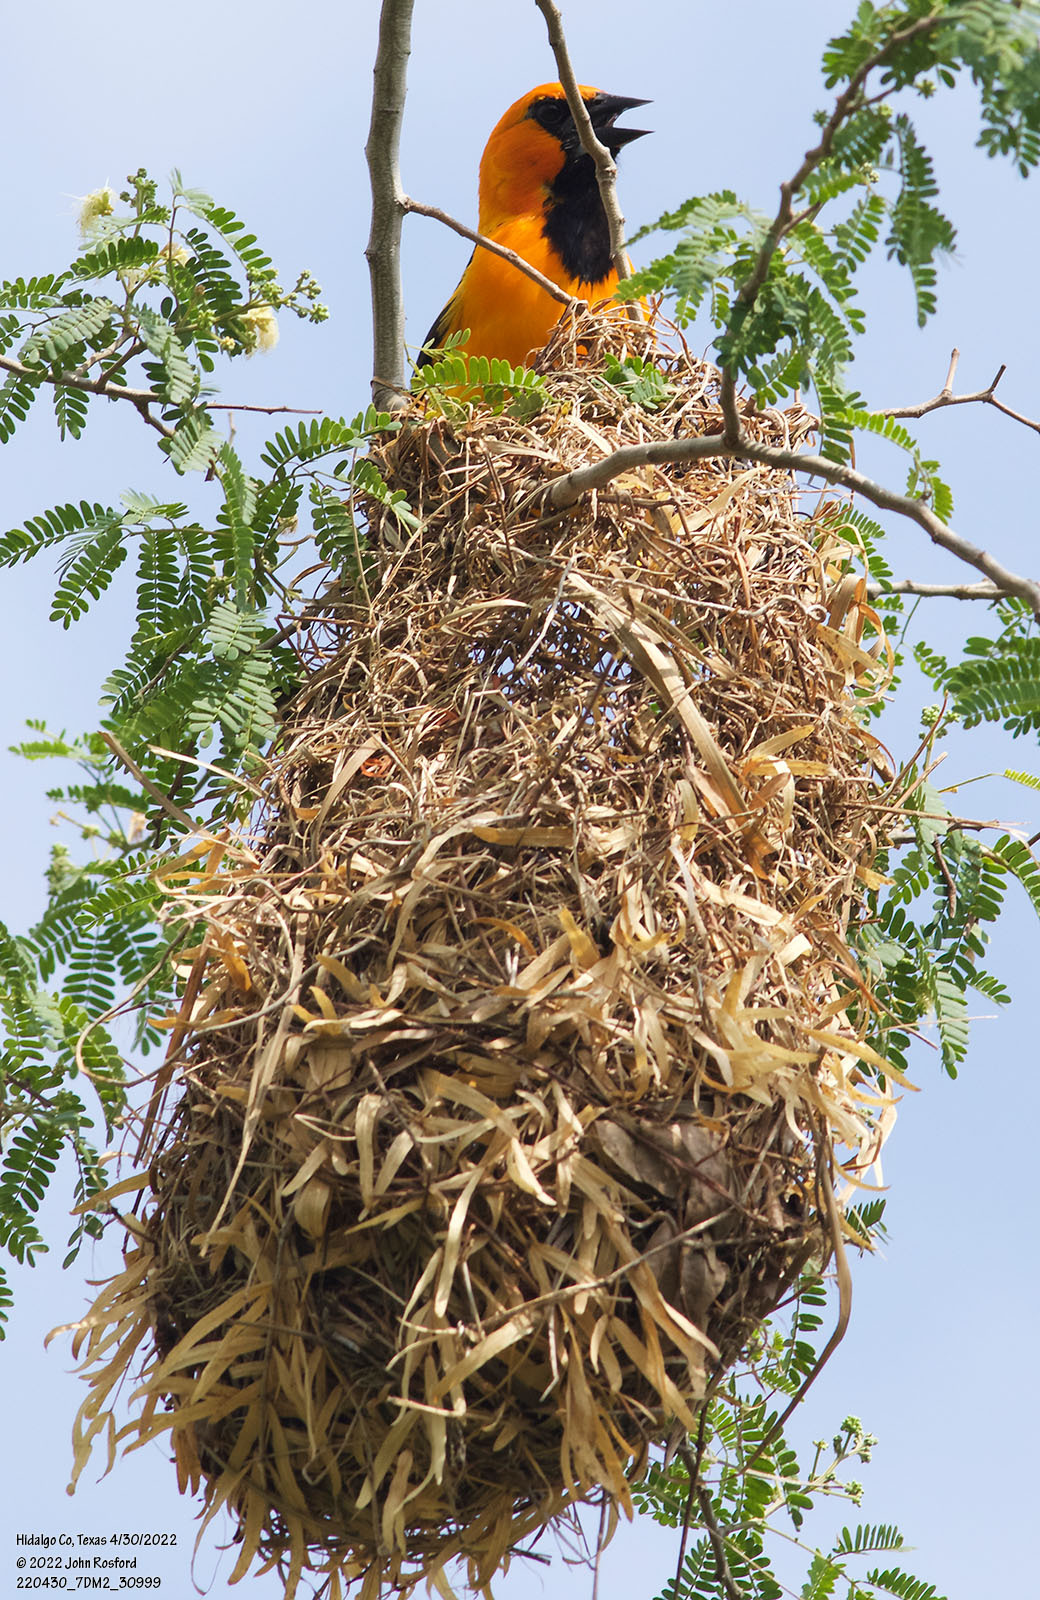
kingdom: Animalia
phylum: Chordata
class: Aves
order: Passeriformes
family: Icteridae
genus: Icterus
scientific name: Icterus gularis
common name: Altamira oriole
